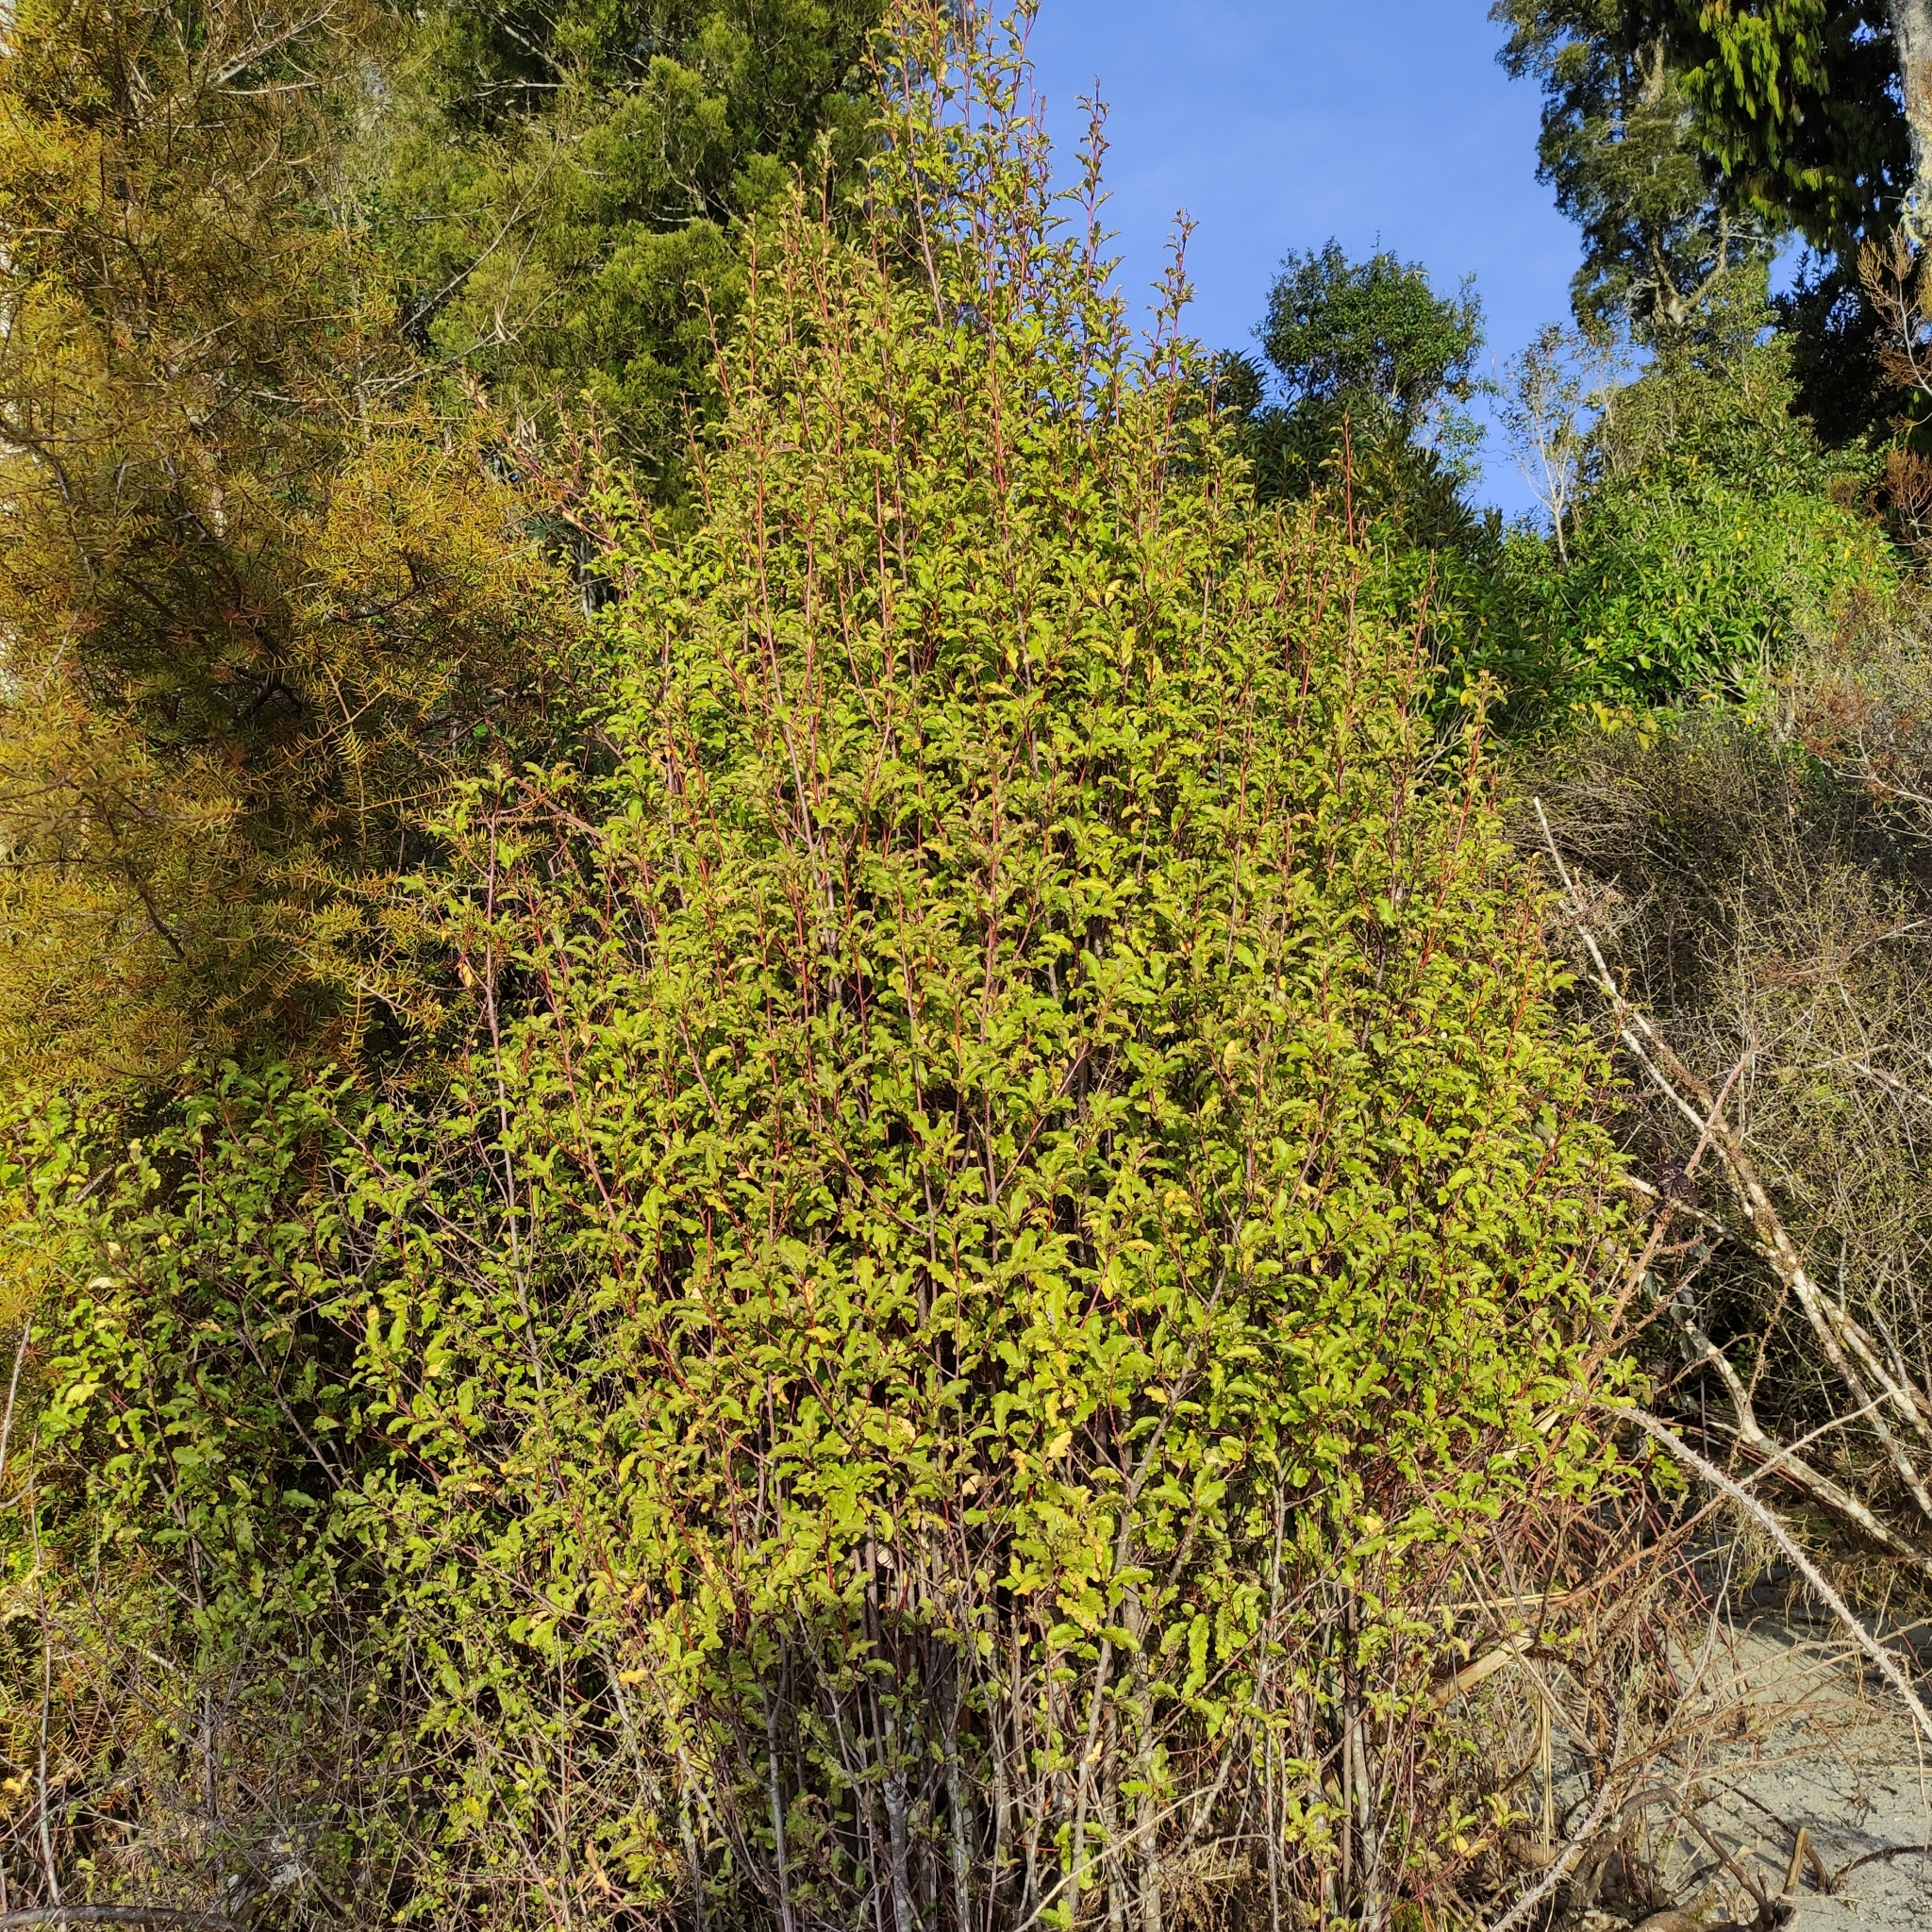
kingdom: Plantae
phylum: Tracheophyta
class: Magnoliopsida
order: Ericales
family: Primulaceae
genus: Myrsine
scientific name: Myrsine australis
